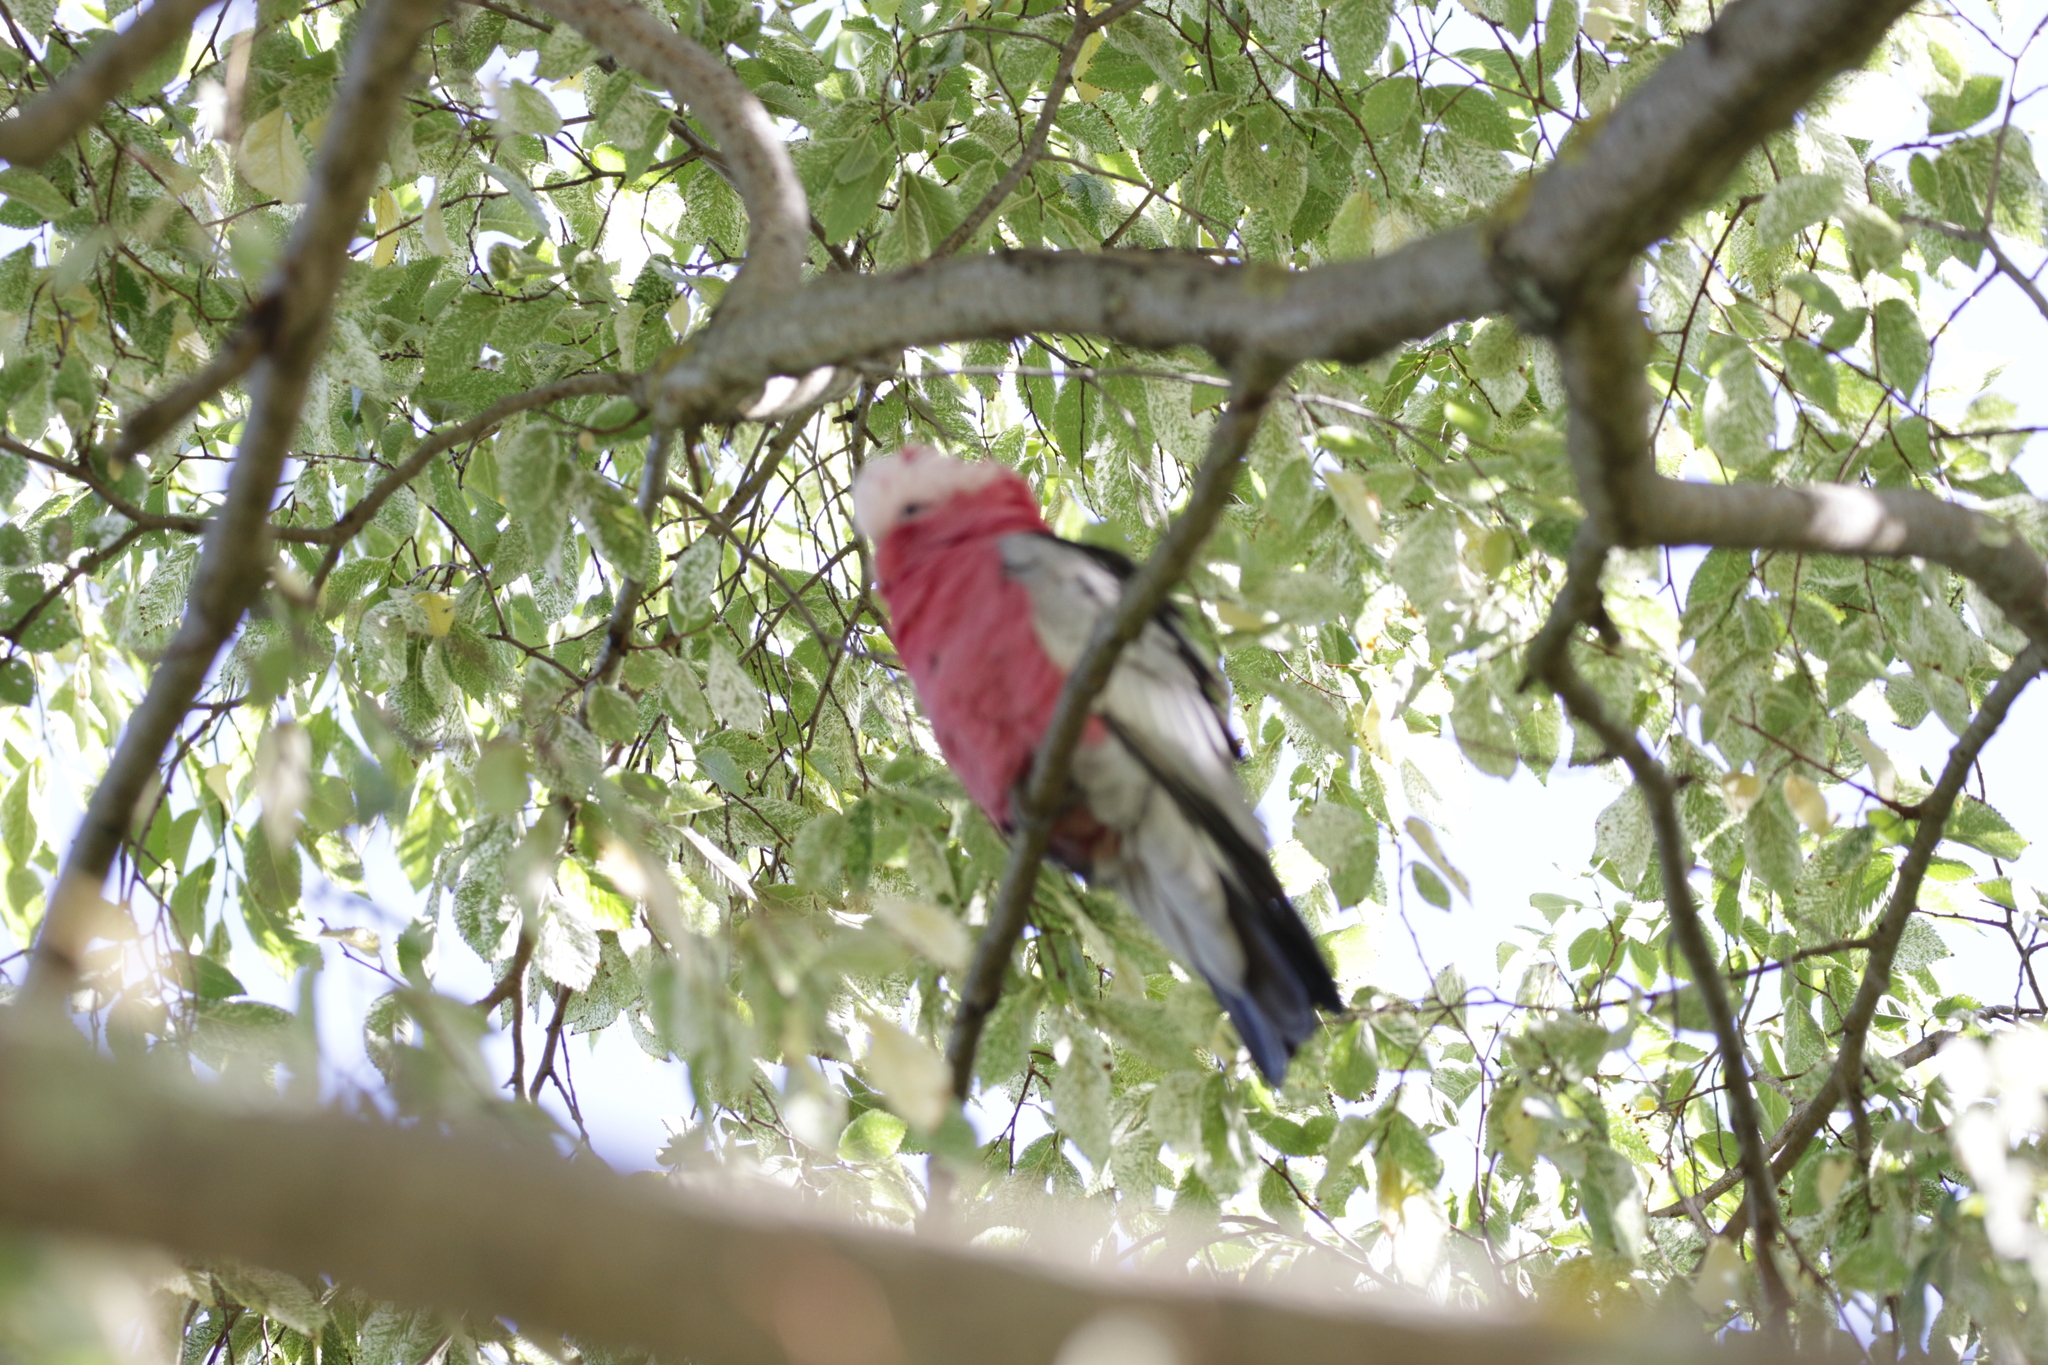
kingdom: Animalia
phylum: Chordata
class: Aves
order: Psittaciformes
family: Psittacidae
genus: Eolophus
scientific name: Eolophus roseicapilla
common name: Galah
